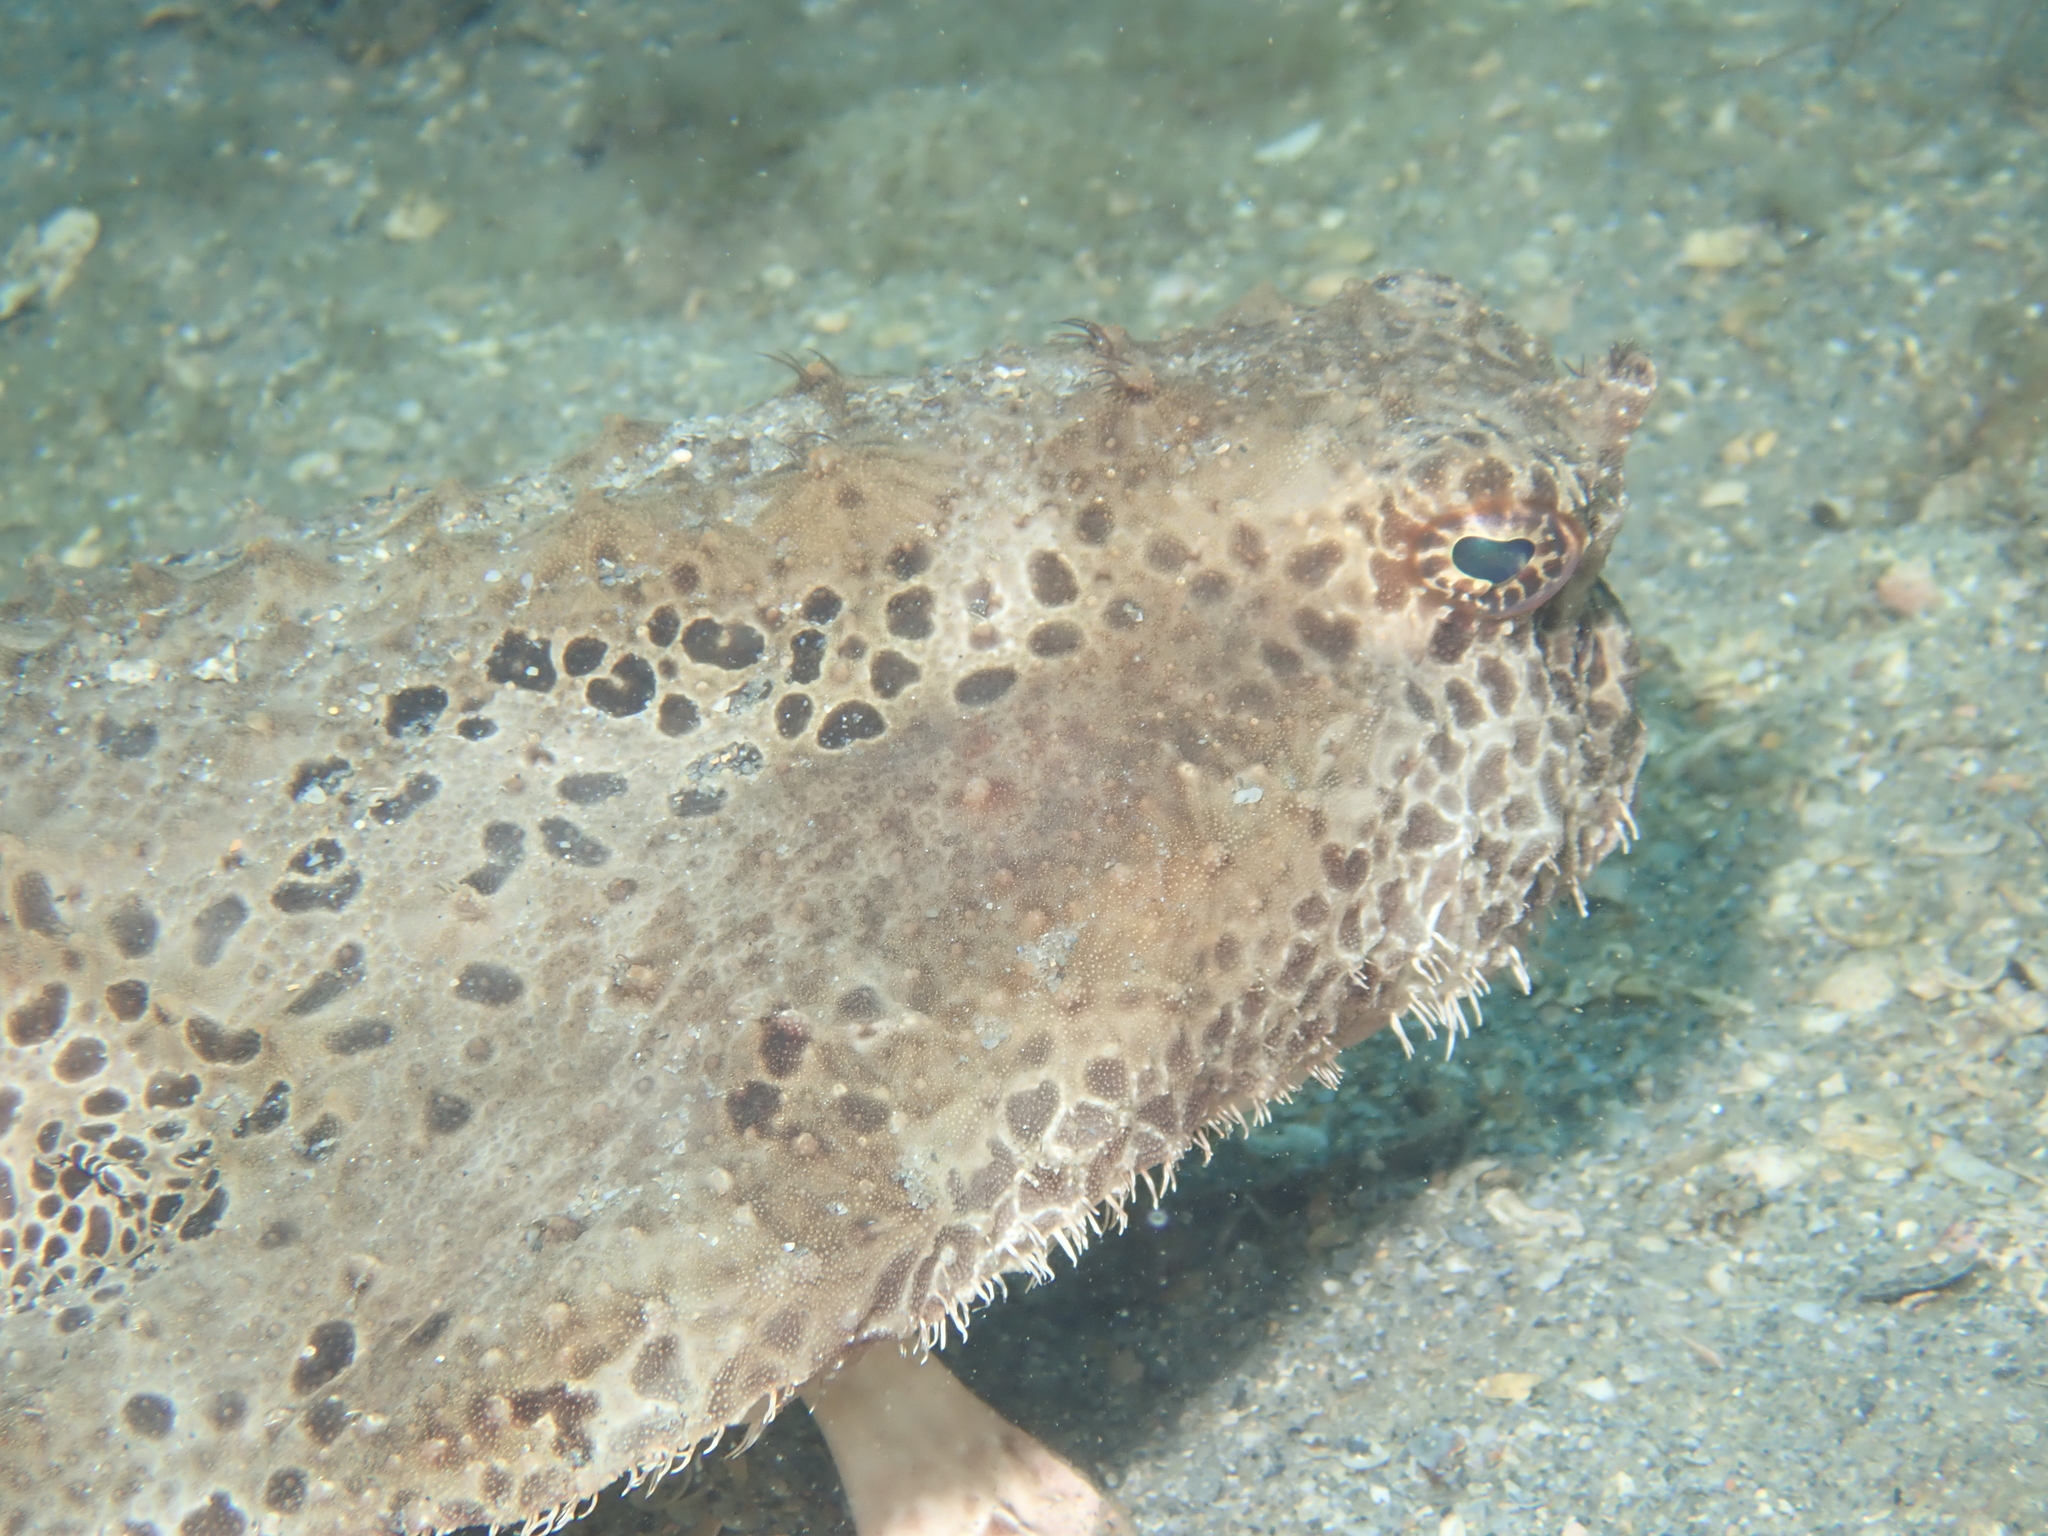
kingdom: Animalia
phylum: Chordata
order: Lophiiformes
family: Ogcocephalidae
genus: Ogcocephalus
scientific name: Ogcocephalus cubifrons
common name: Polka-dot batfish
